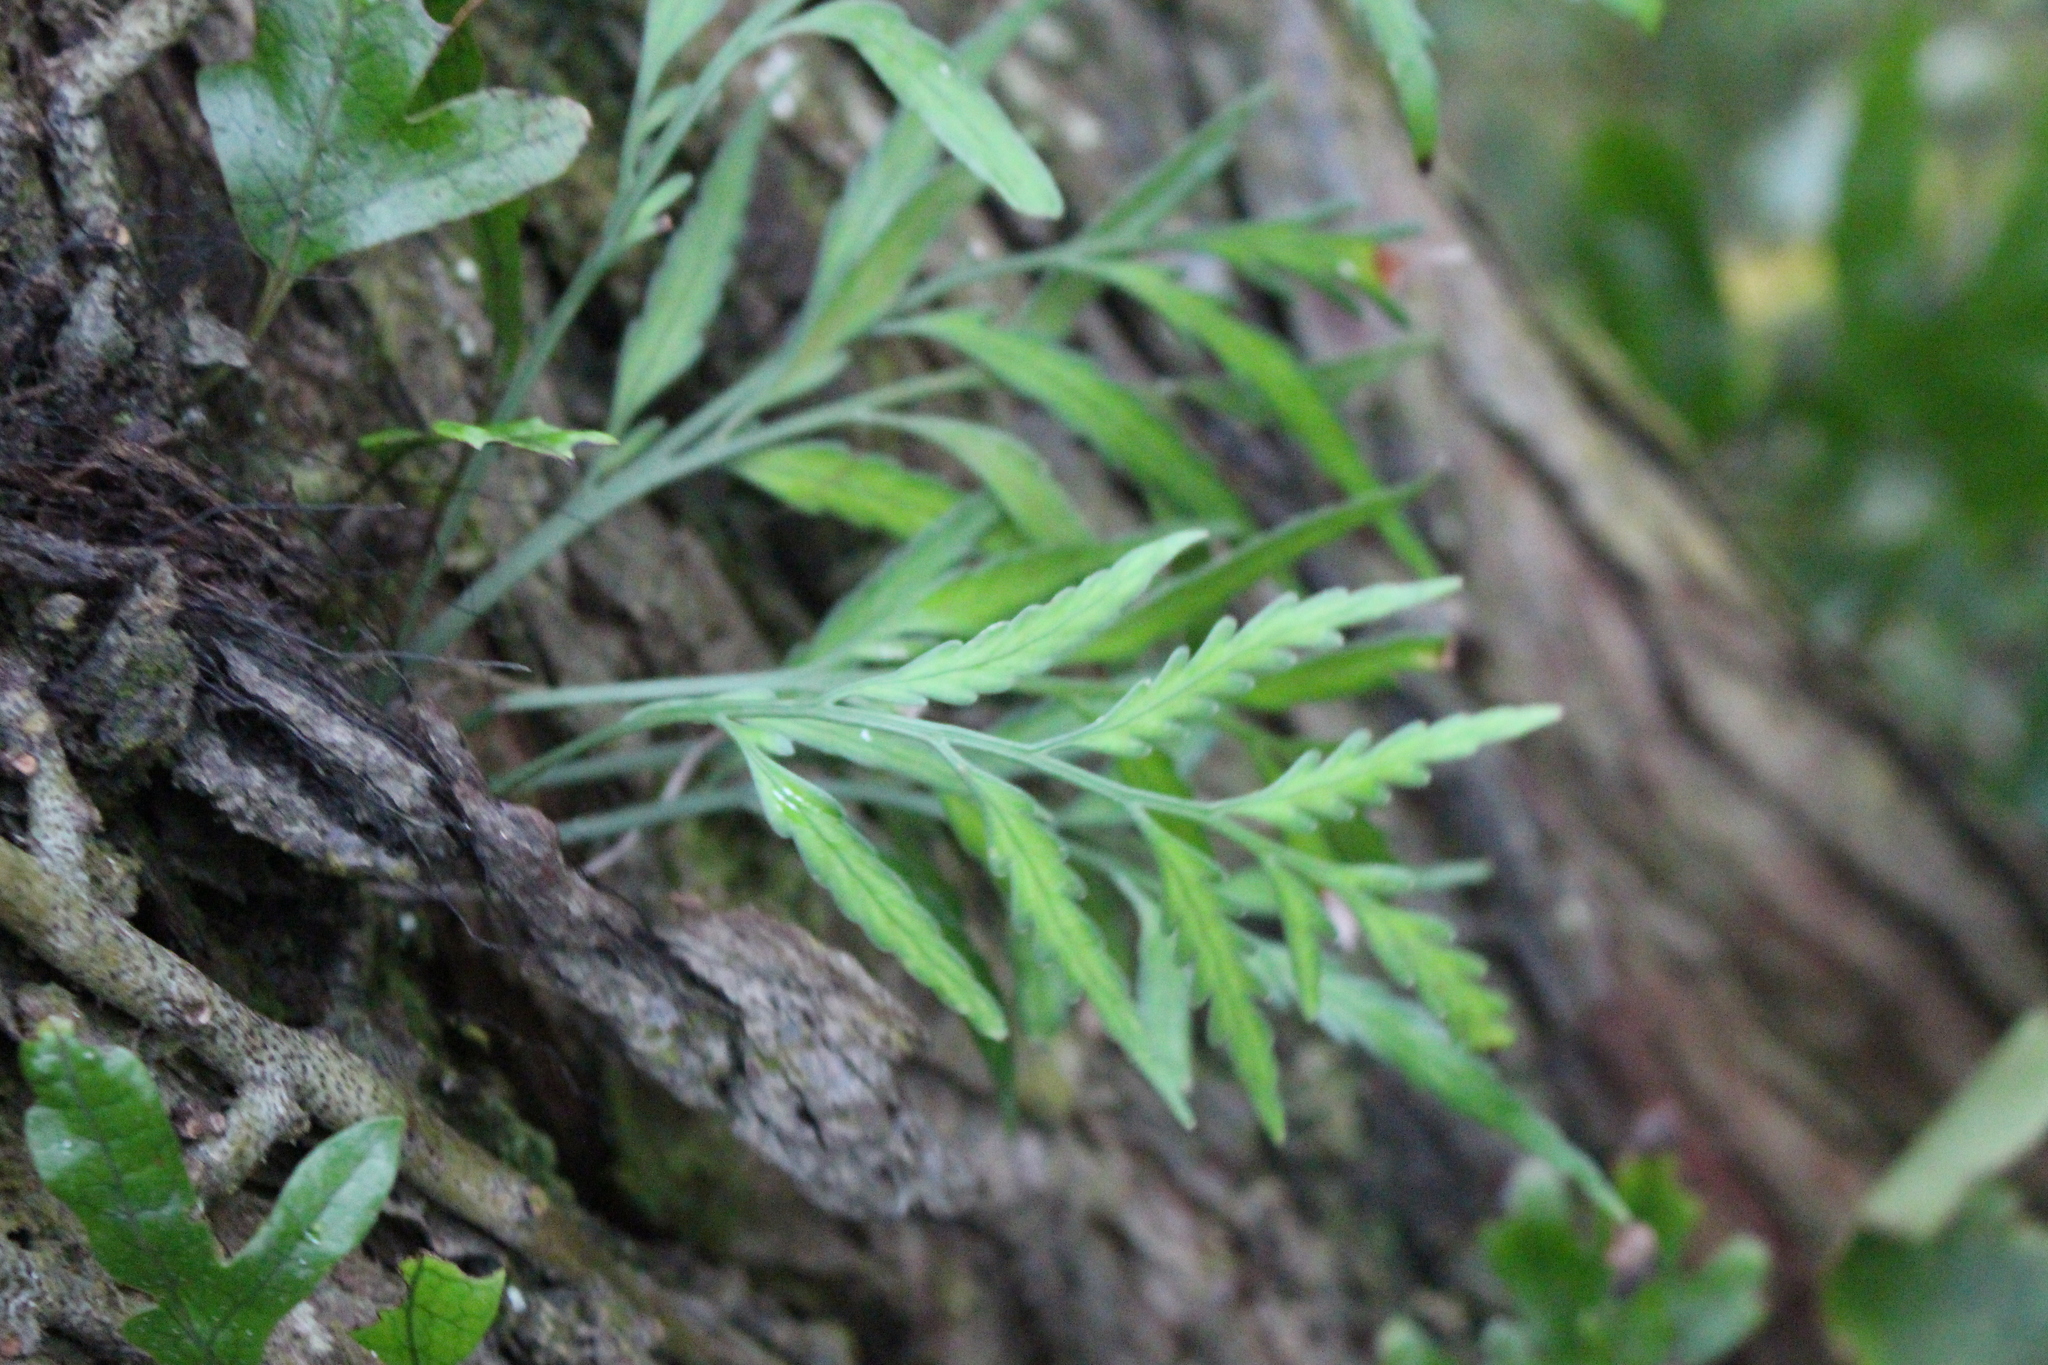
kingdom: Plantae
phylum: Tracheophyta
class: Polypodiopsida
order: Polypodiales
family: Aspleniaceae
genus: Asplenium
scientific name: Asplenium flaccidum
